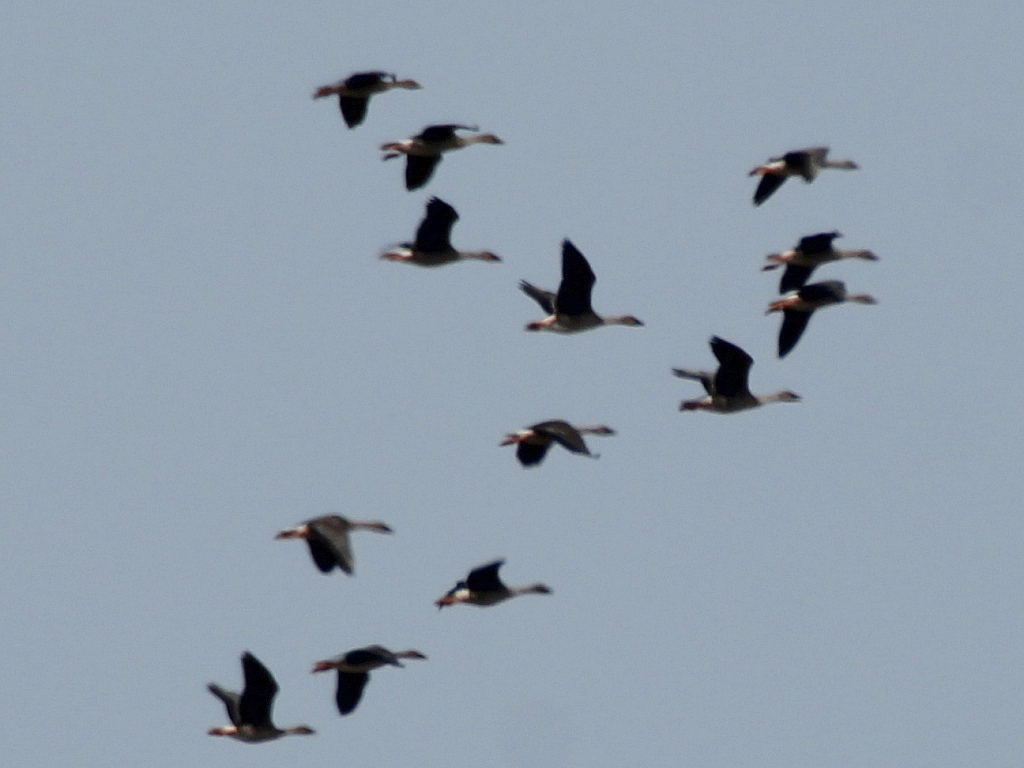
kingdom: Animalia
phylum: Chordata
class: Aves
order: Anseriformes
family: Anatidae
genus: Anser
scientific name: Anser fabalis
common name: Bean goose
